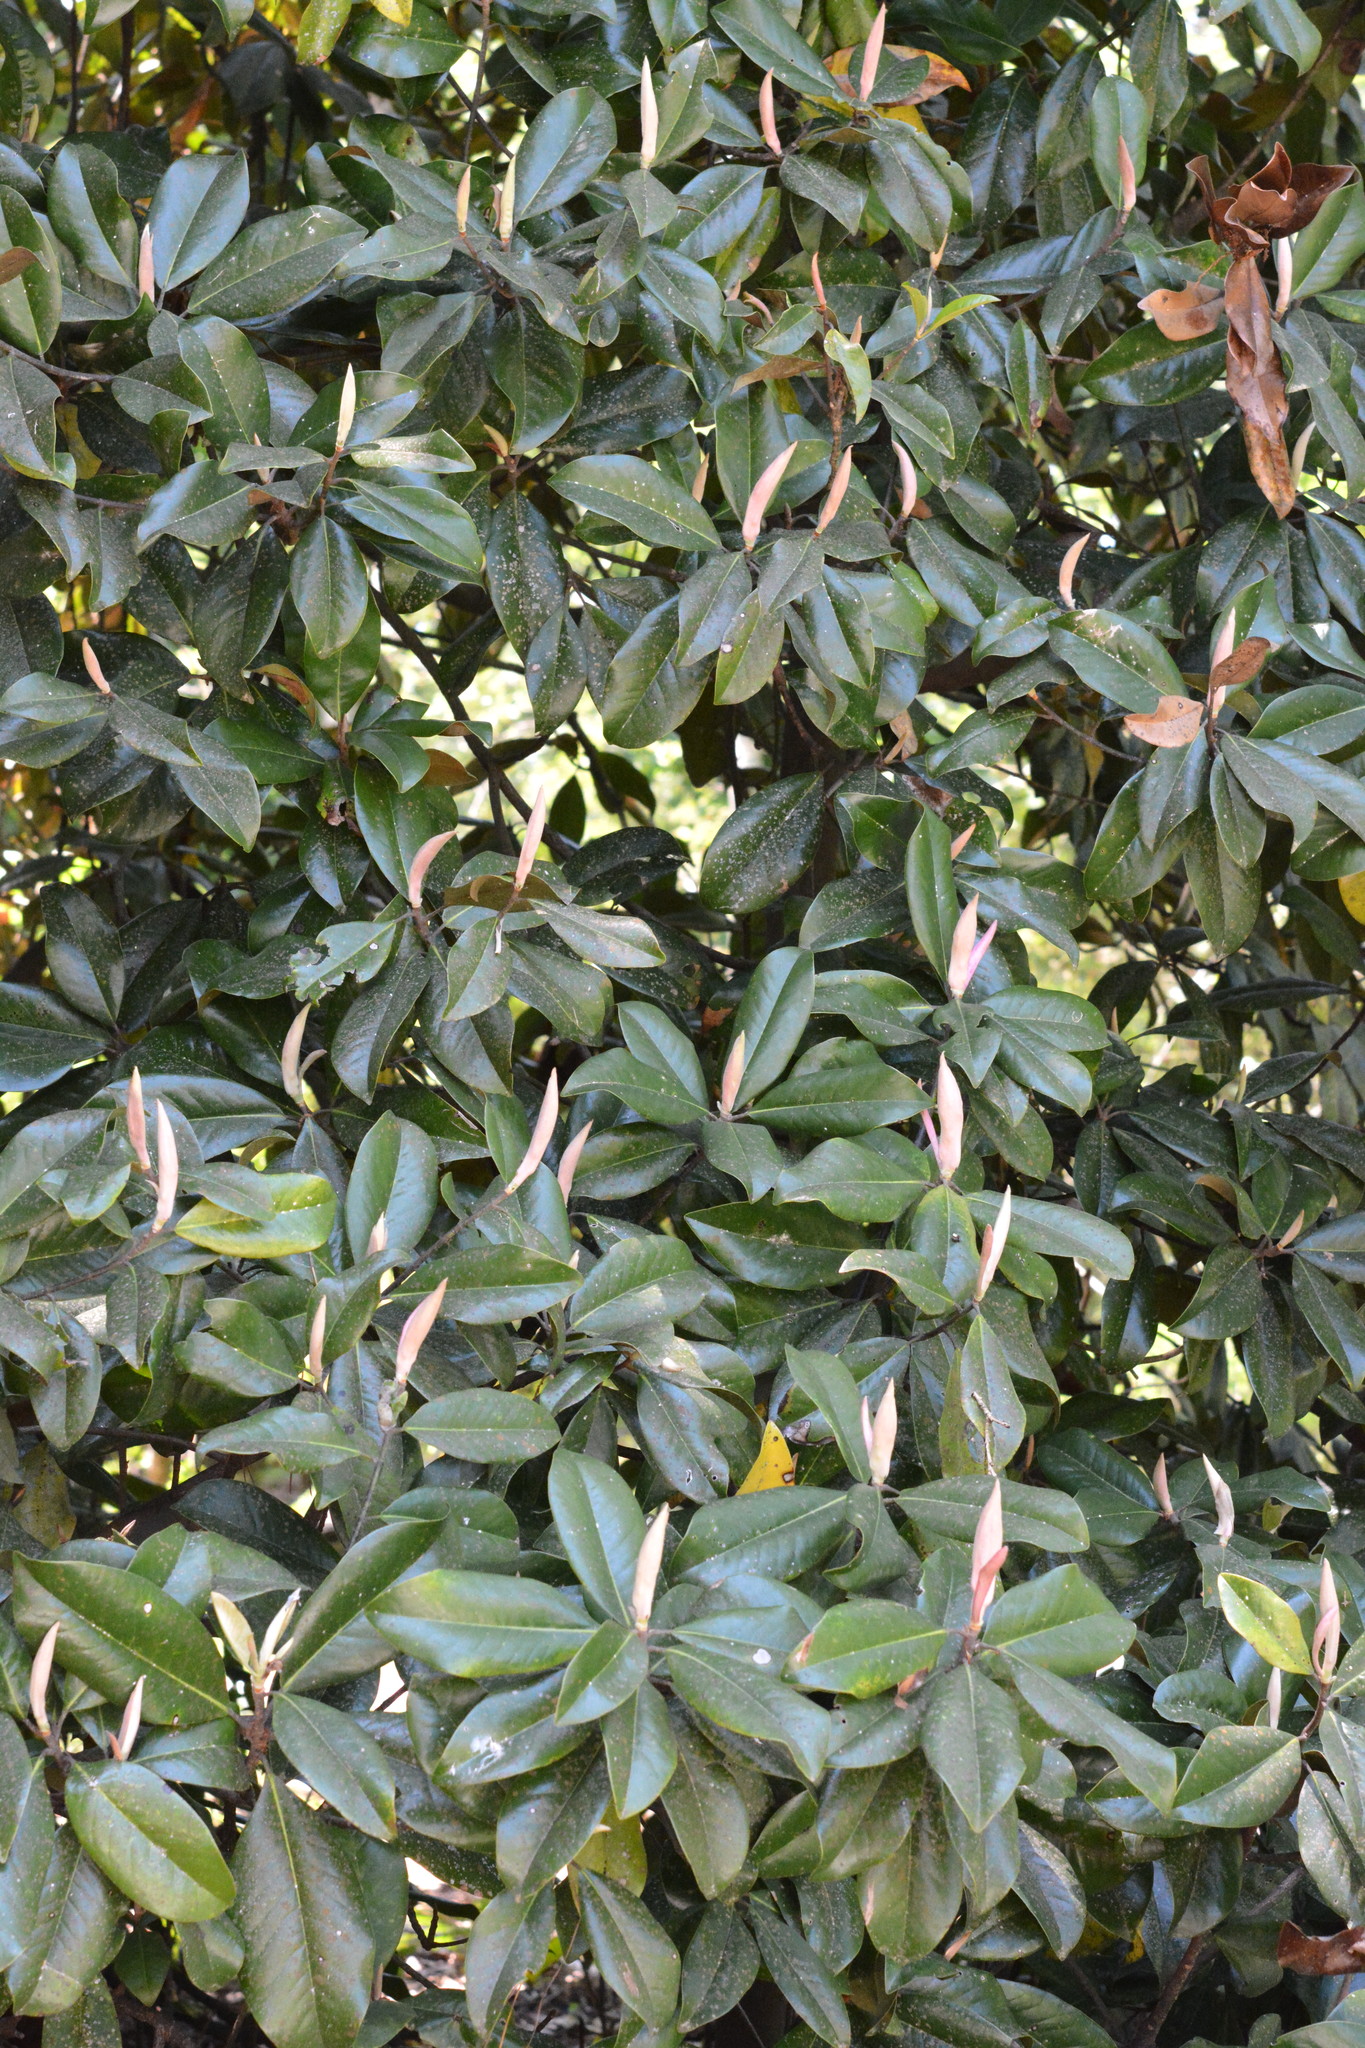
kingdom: Plantae
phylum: Tracheophyta
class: Magnoliopsida
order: Magnoliales
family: Magnoliaceae
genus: Magnolia
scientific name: Magnolia grandiflora
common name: Southern magnolia
